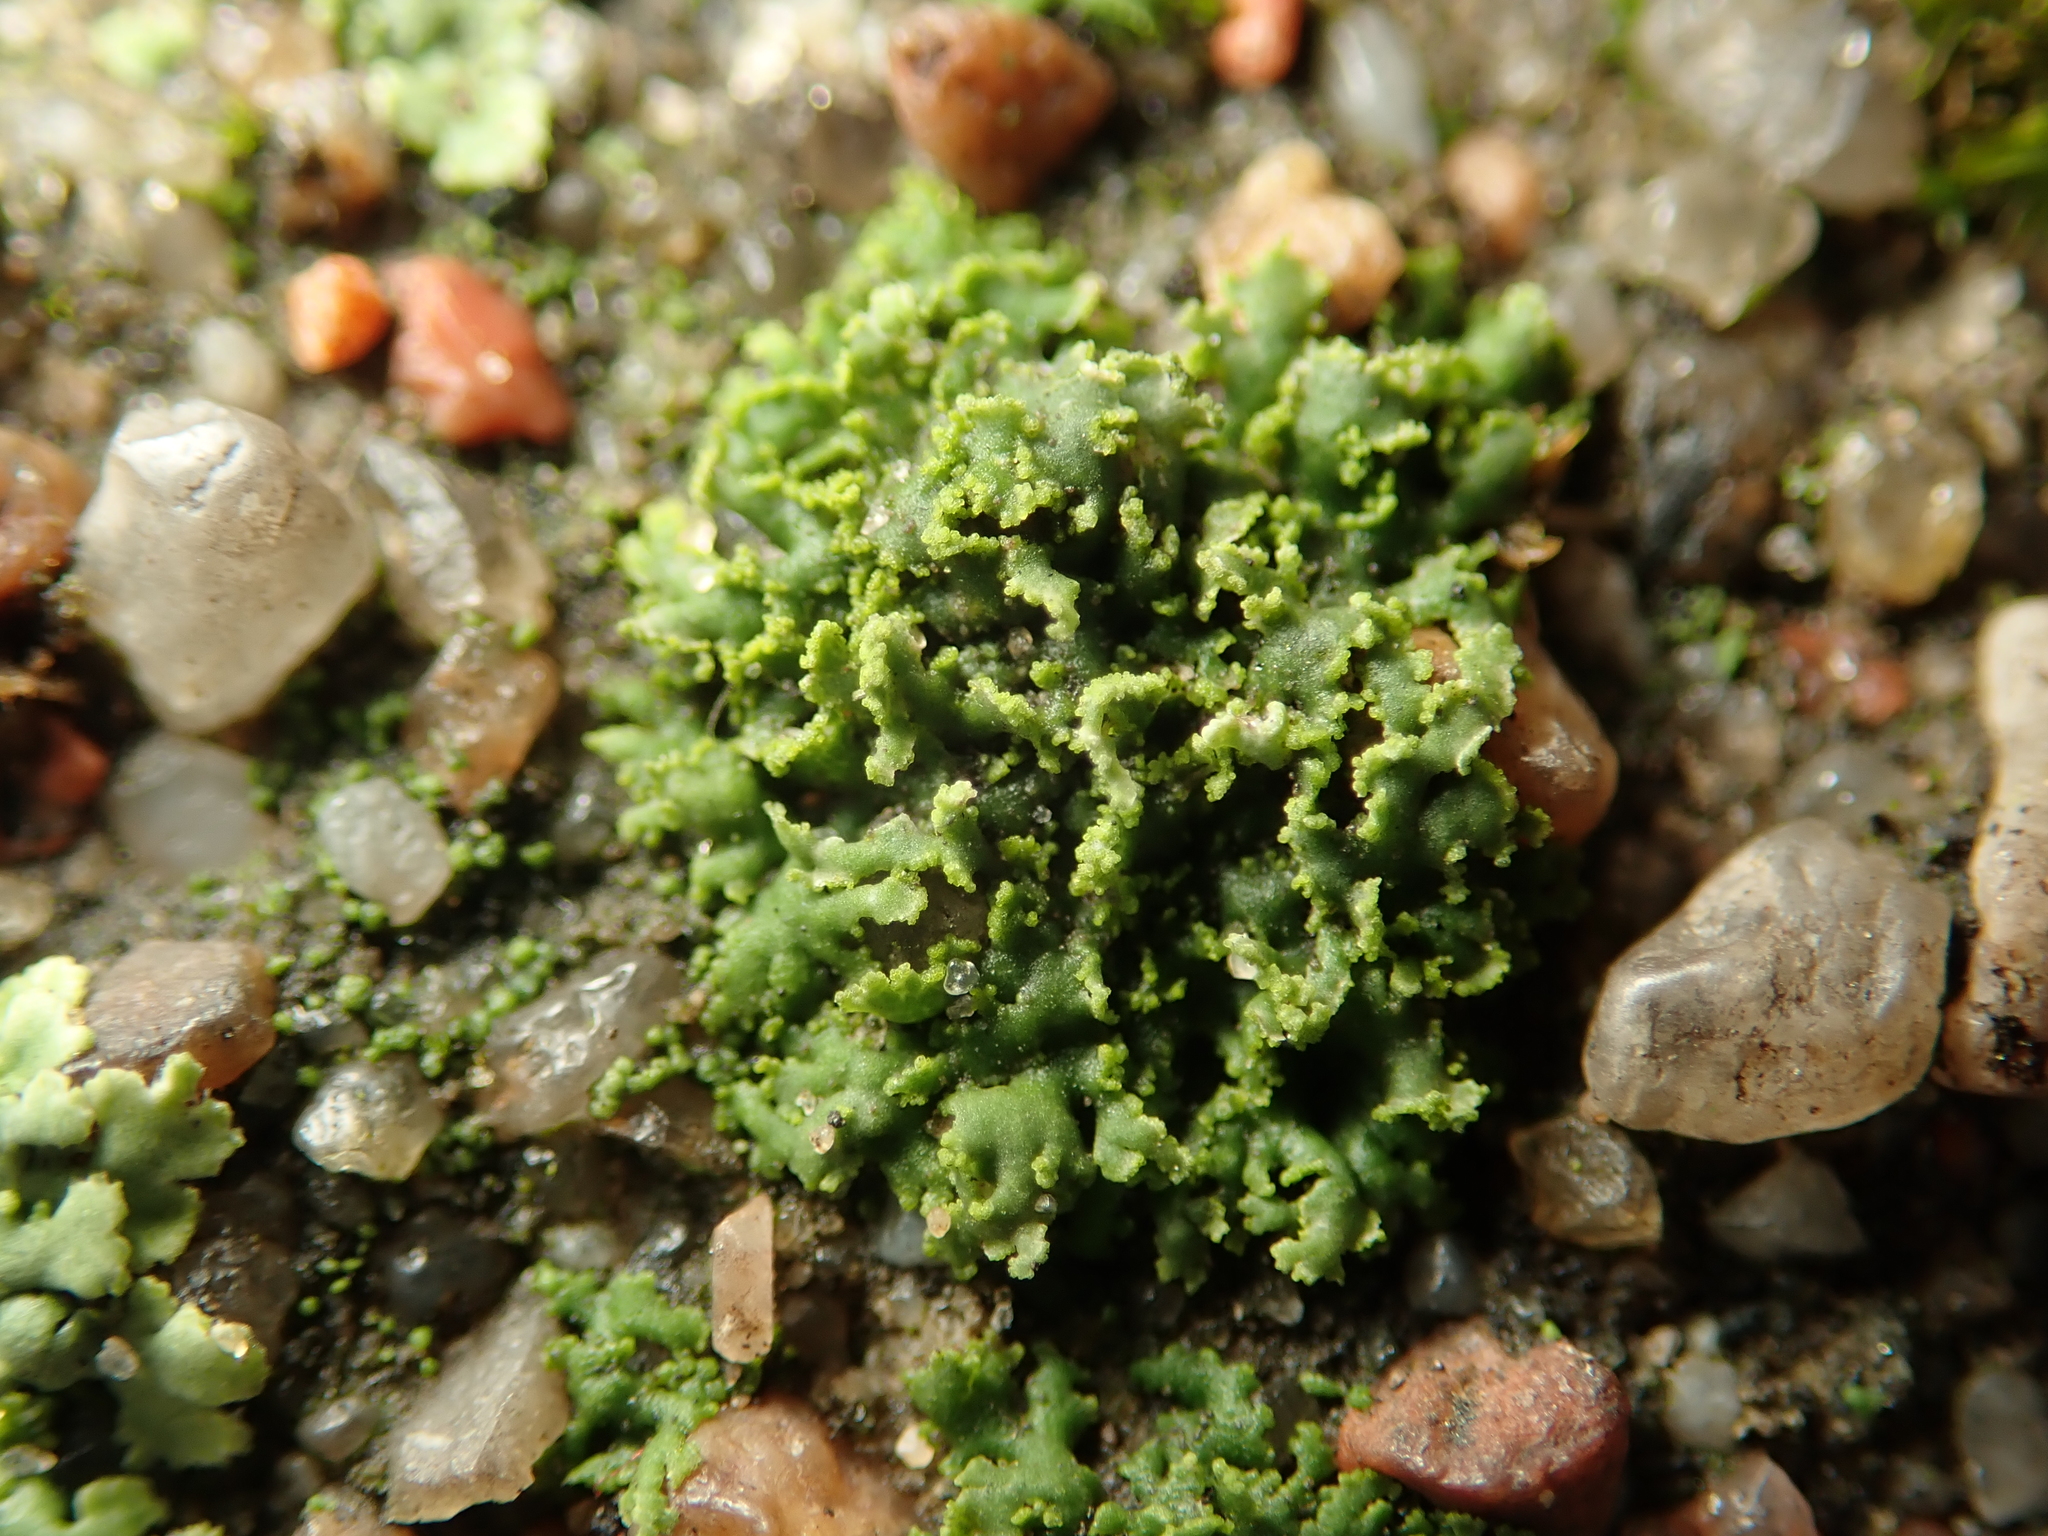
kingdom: Fungi
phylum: Ascomycota
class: Lecanoromycetes
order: Caliciales
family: Physciaceae
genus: Physciella
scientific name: Physciella nigricans
